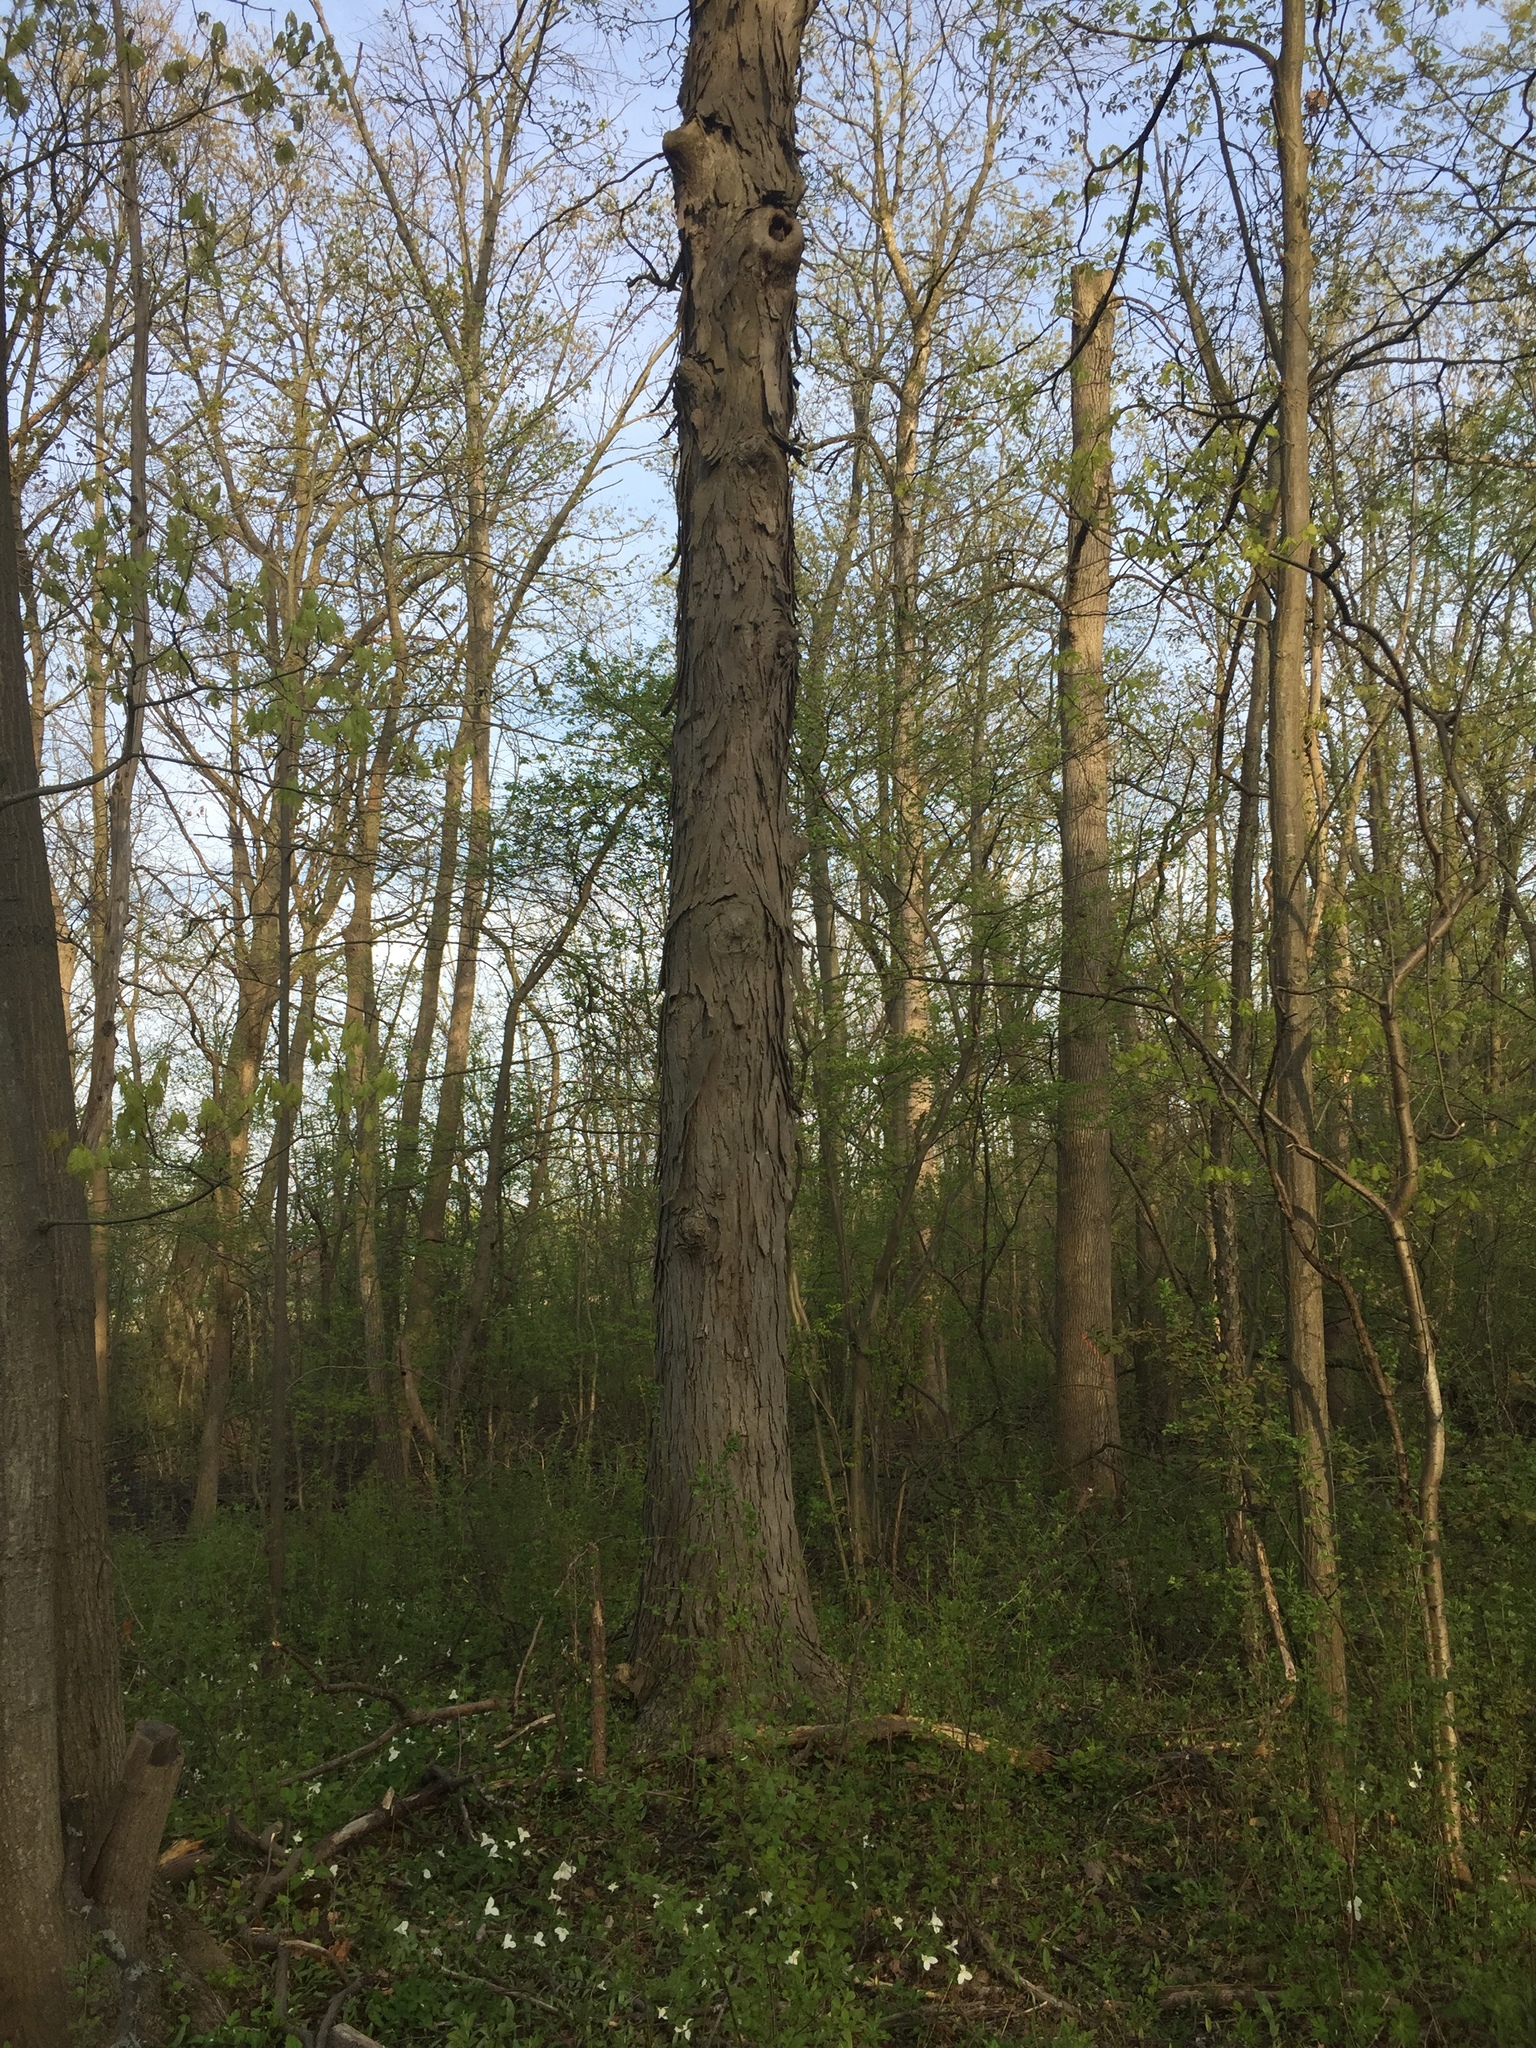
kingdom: Plantae
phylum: Tracheophyta
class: Magnoliopsida
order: Fagales
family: Juglandaceae
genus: Carya
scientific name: Carya ovata
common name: Shagbark hickory
